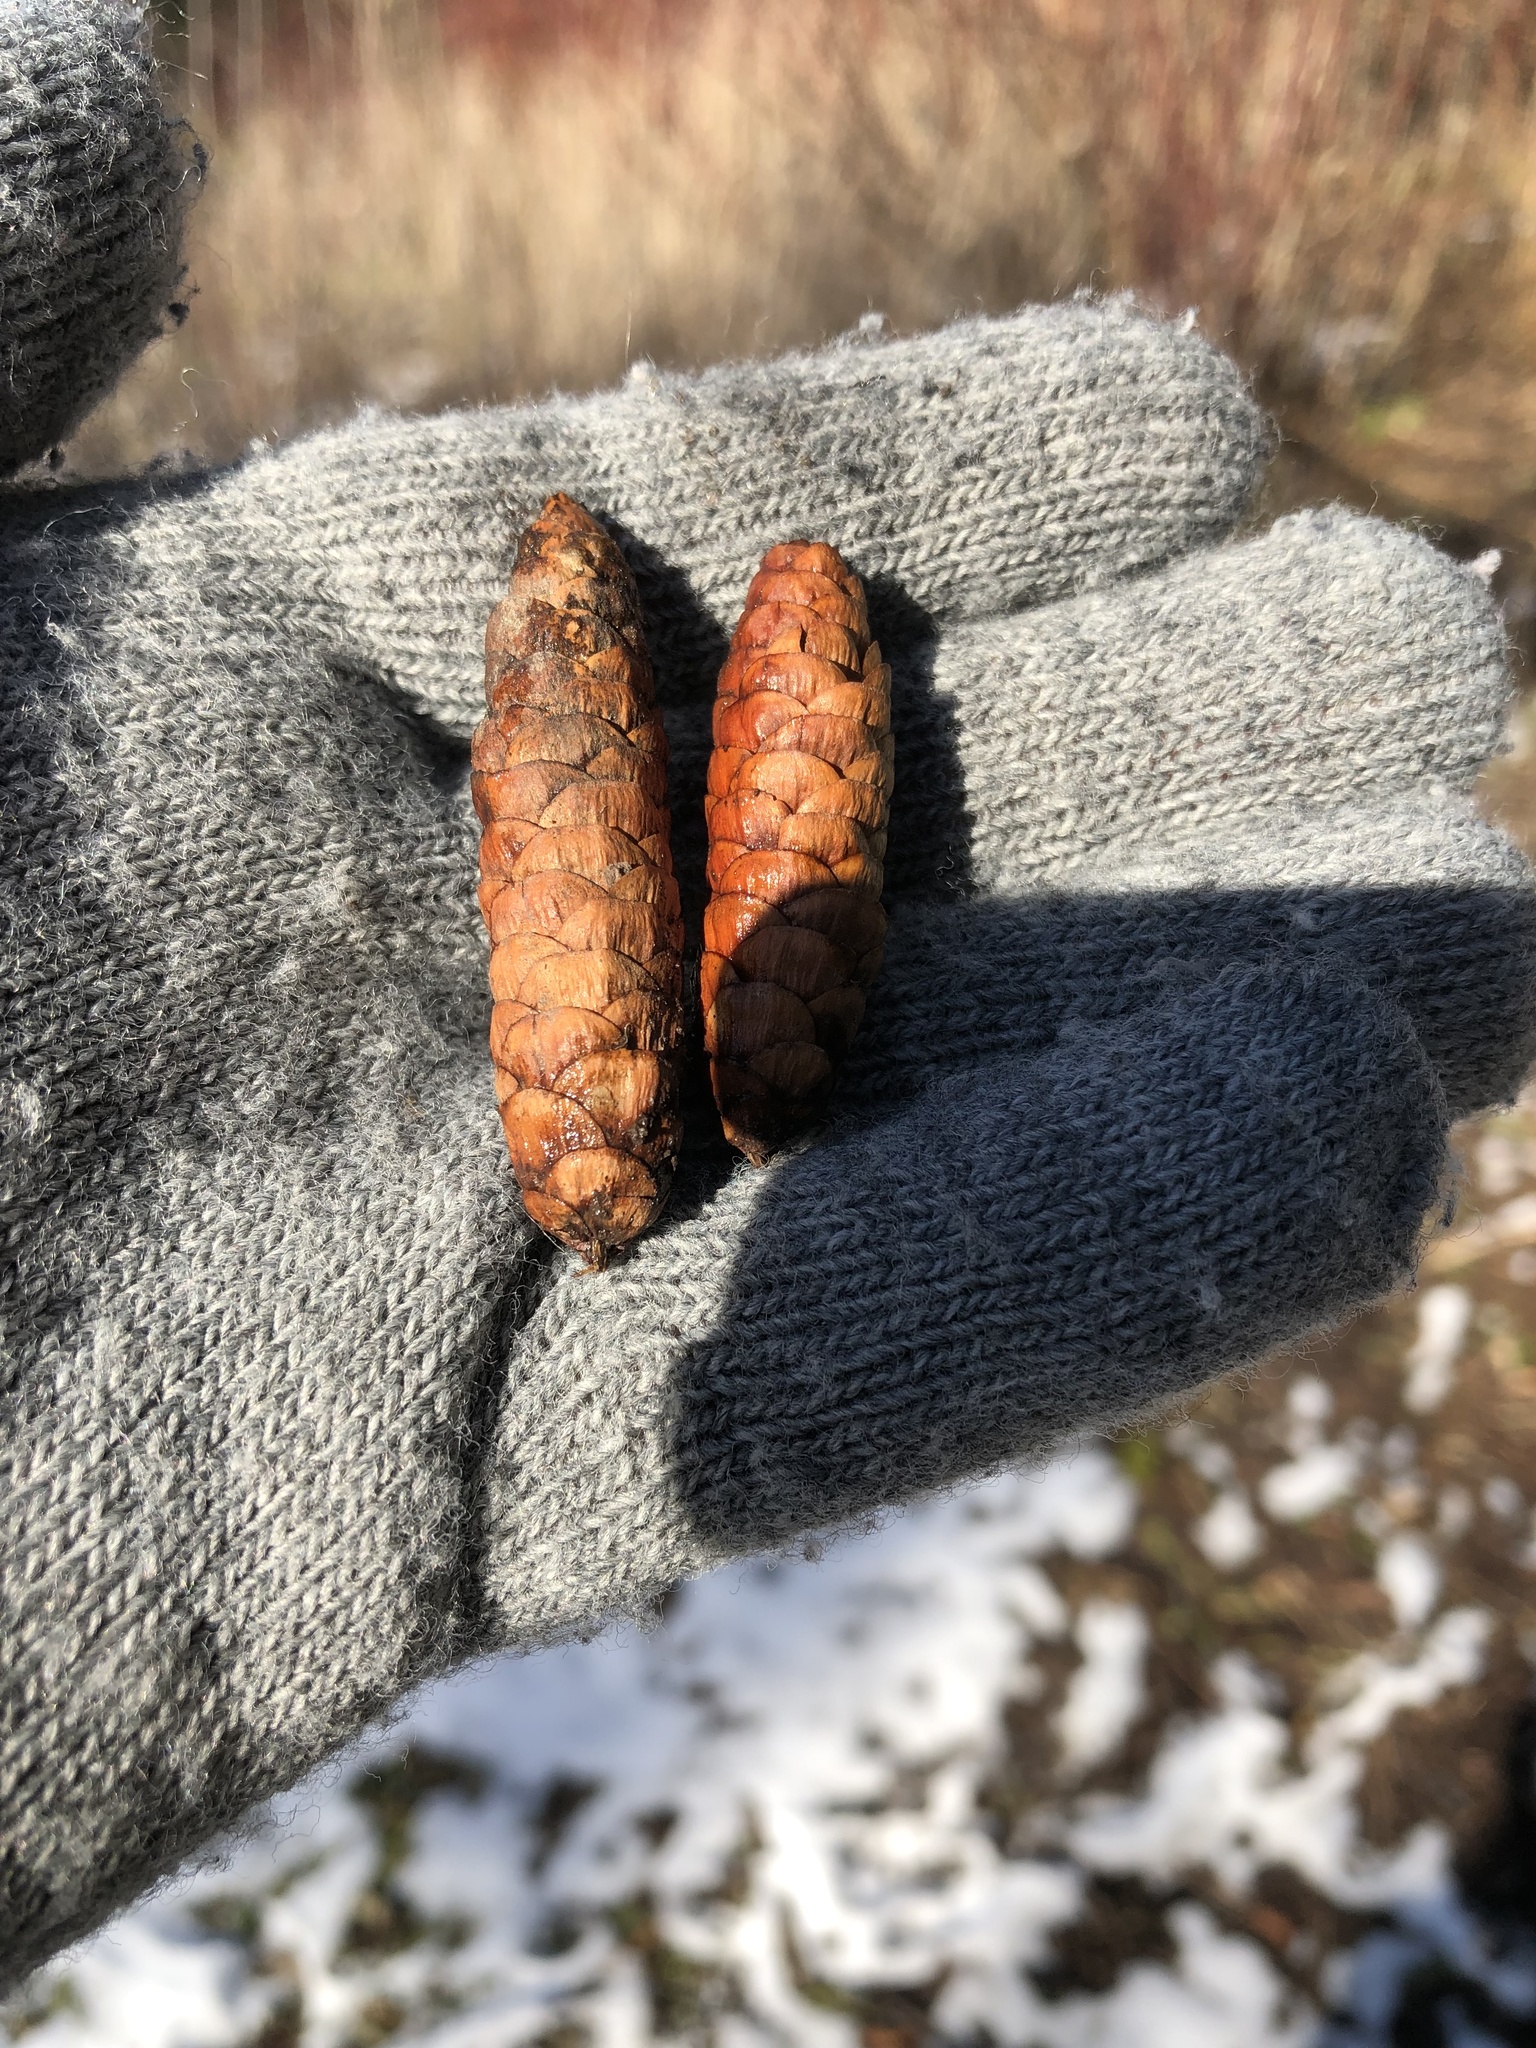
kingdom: Plantae
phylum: Tracheophyta
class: Pinopsida
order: Pinales
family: Pinaceae
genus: Picea
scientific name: Picea glauca
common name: White spruce
